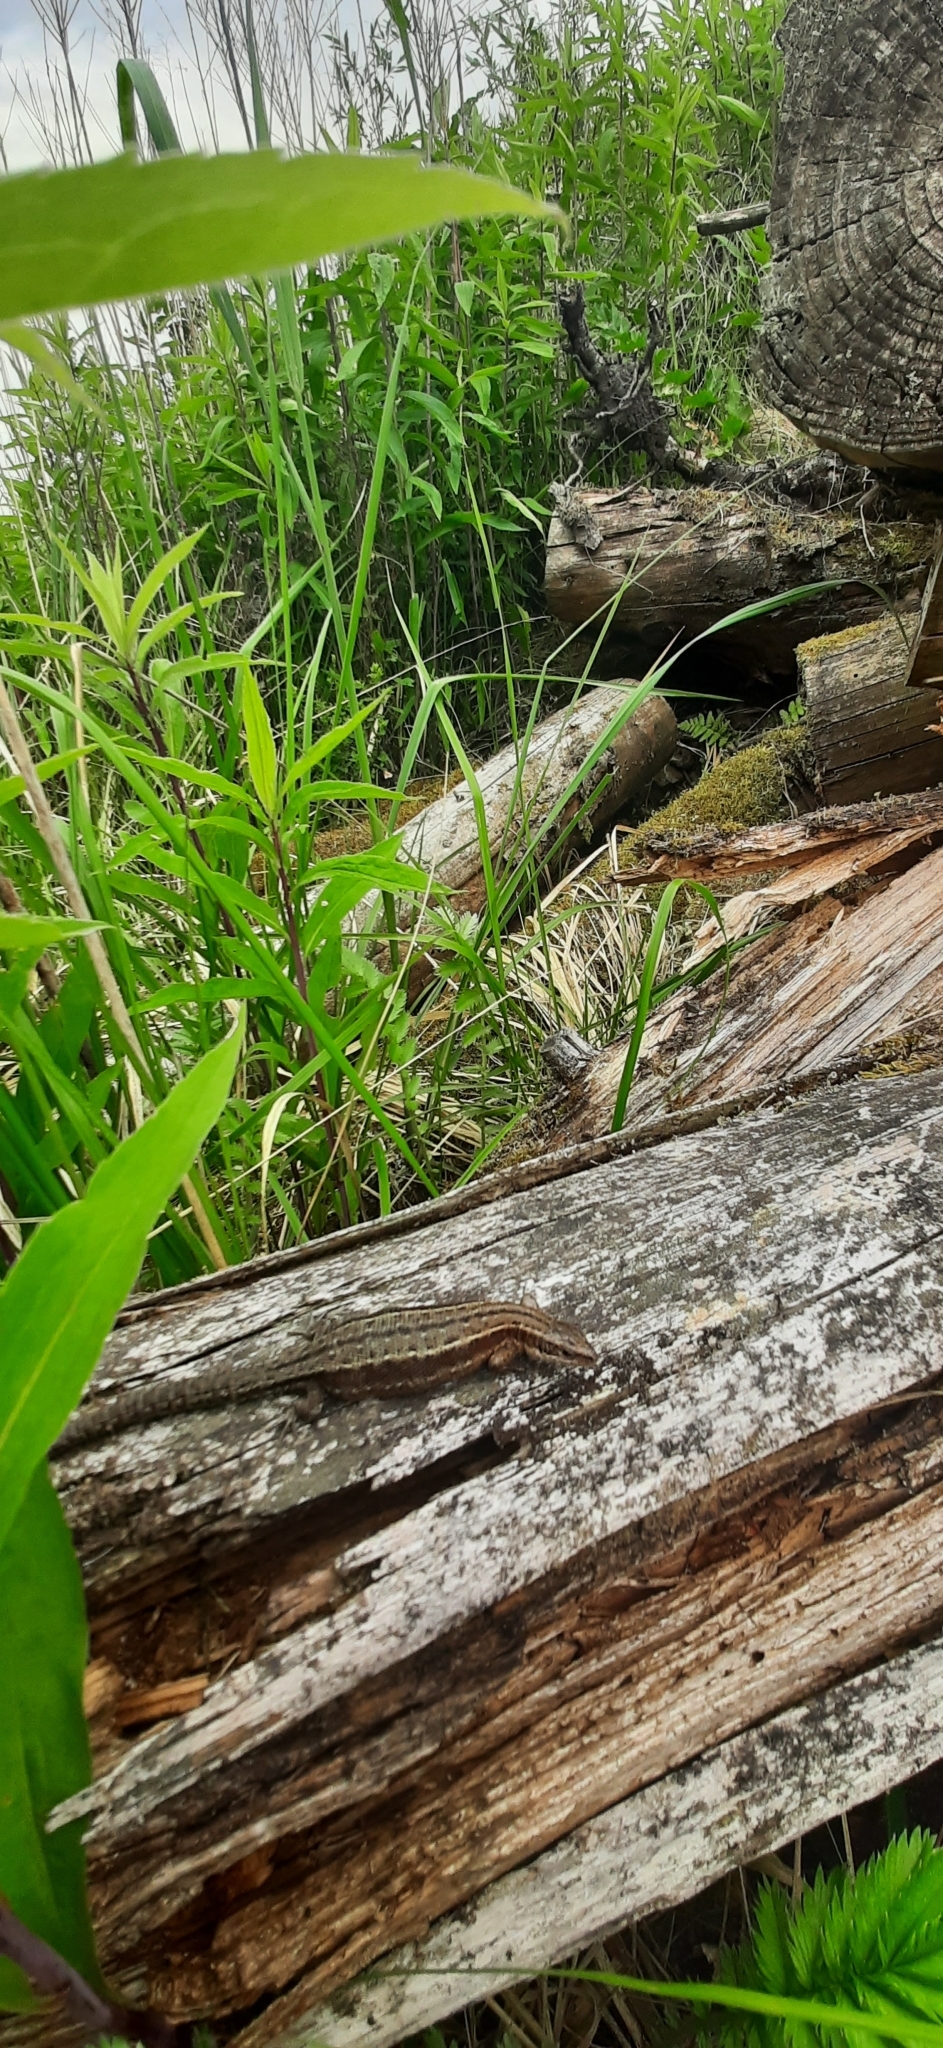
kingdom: Animalia
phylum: Chordata
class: Squamata
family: Lacertidae
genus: Zootoca
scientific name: Zootoca vivipara
